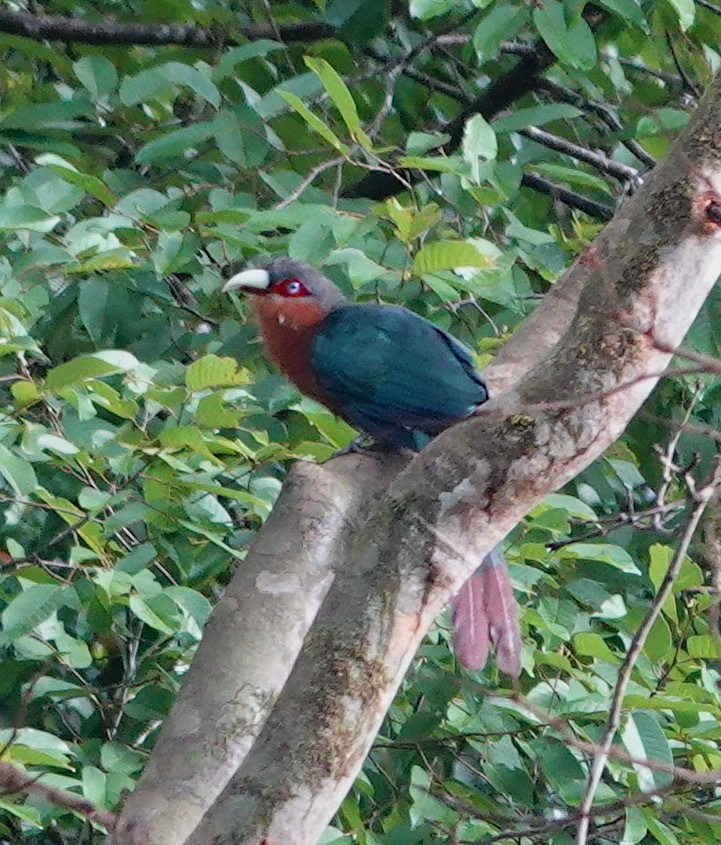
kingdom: Animalia
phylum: Chordata
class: Aves
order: Cuculiformes
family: Cuculidae
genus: Zanclostomus
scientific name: Zanclostomus curvirostris
